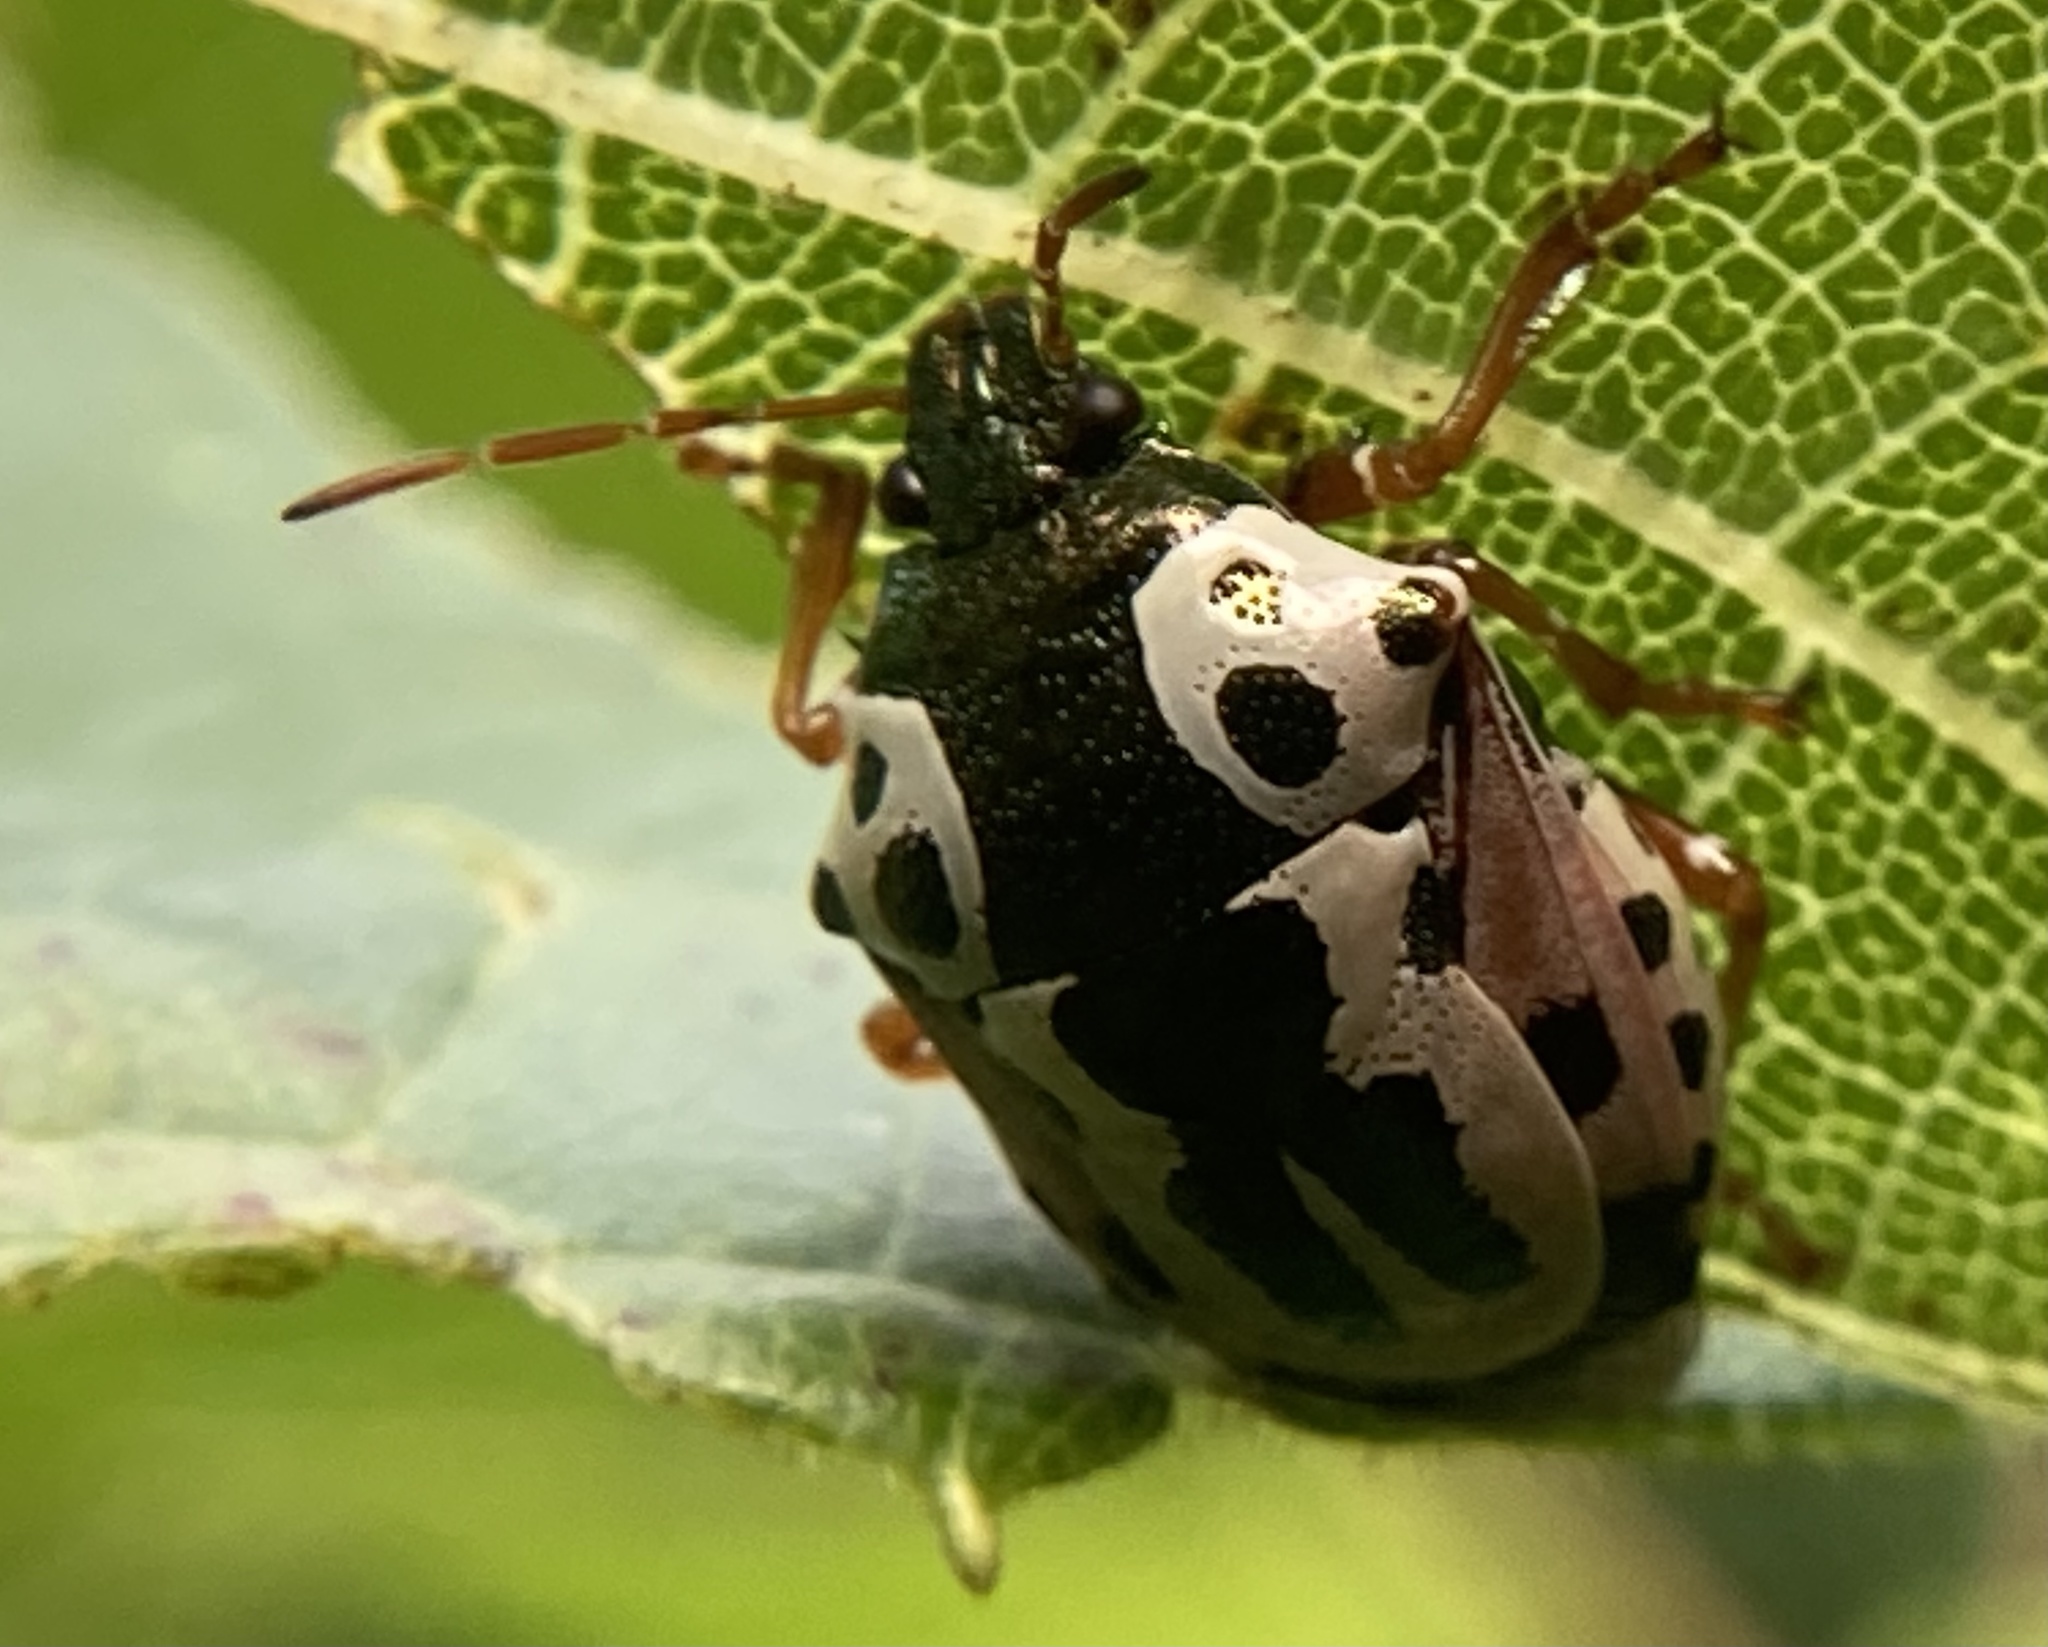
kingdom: Animalia
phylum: Arthropoda
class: Insecta
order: Hemiptera
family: Pentatomidae
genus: Stiretrus
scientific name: Stiretrus anchorago
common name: Anchor stink bug
